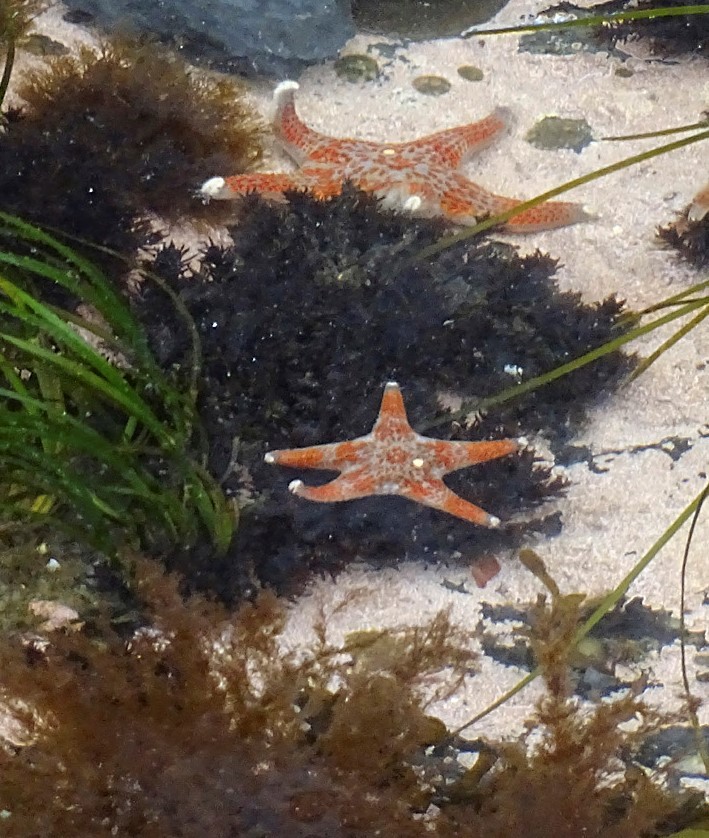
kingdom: Animalia
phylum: Echinodermata
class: Asteroidea
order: Valvatida
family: Asteropseidae
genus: Dermasterias
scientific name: Dermasterias imbricata
